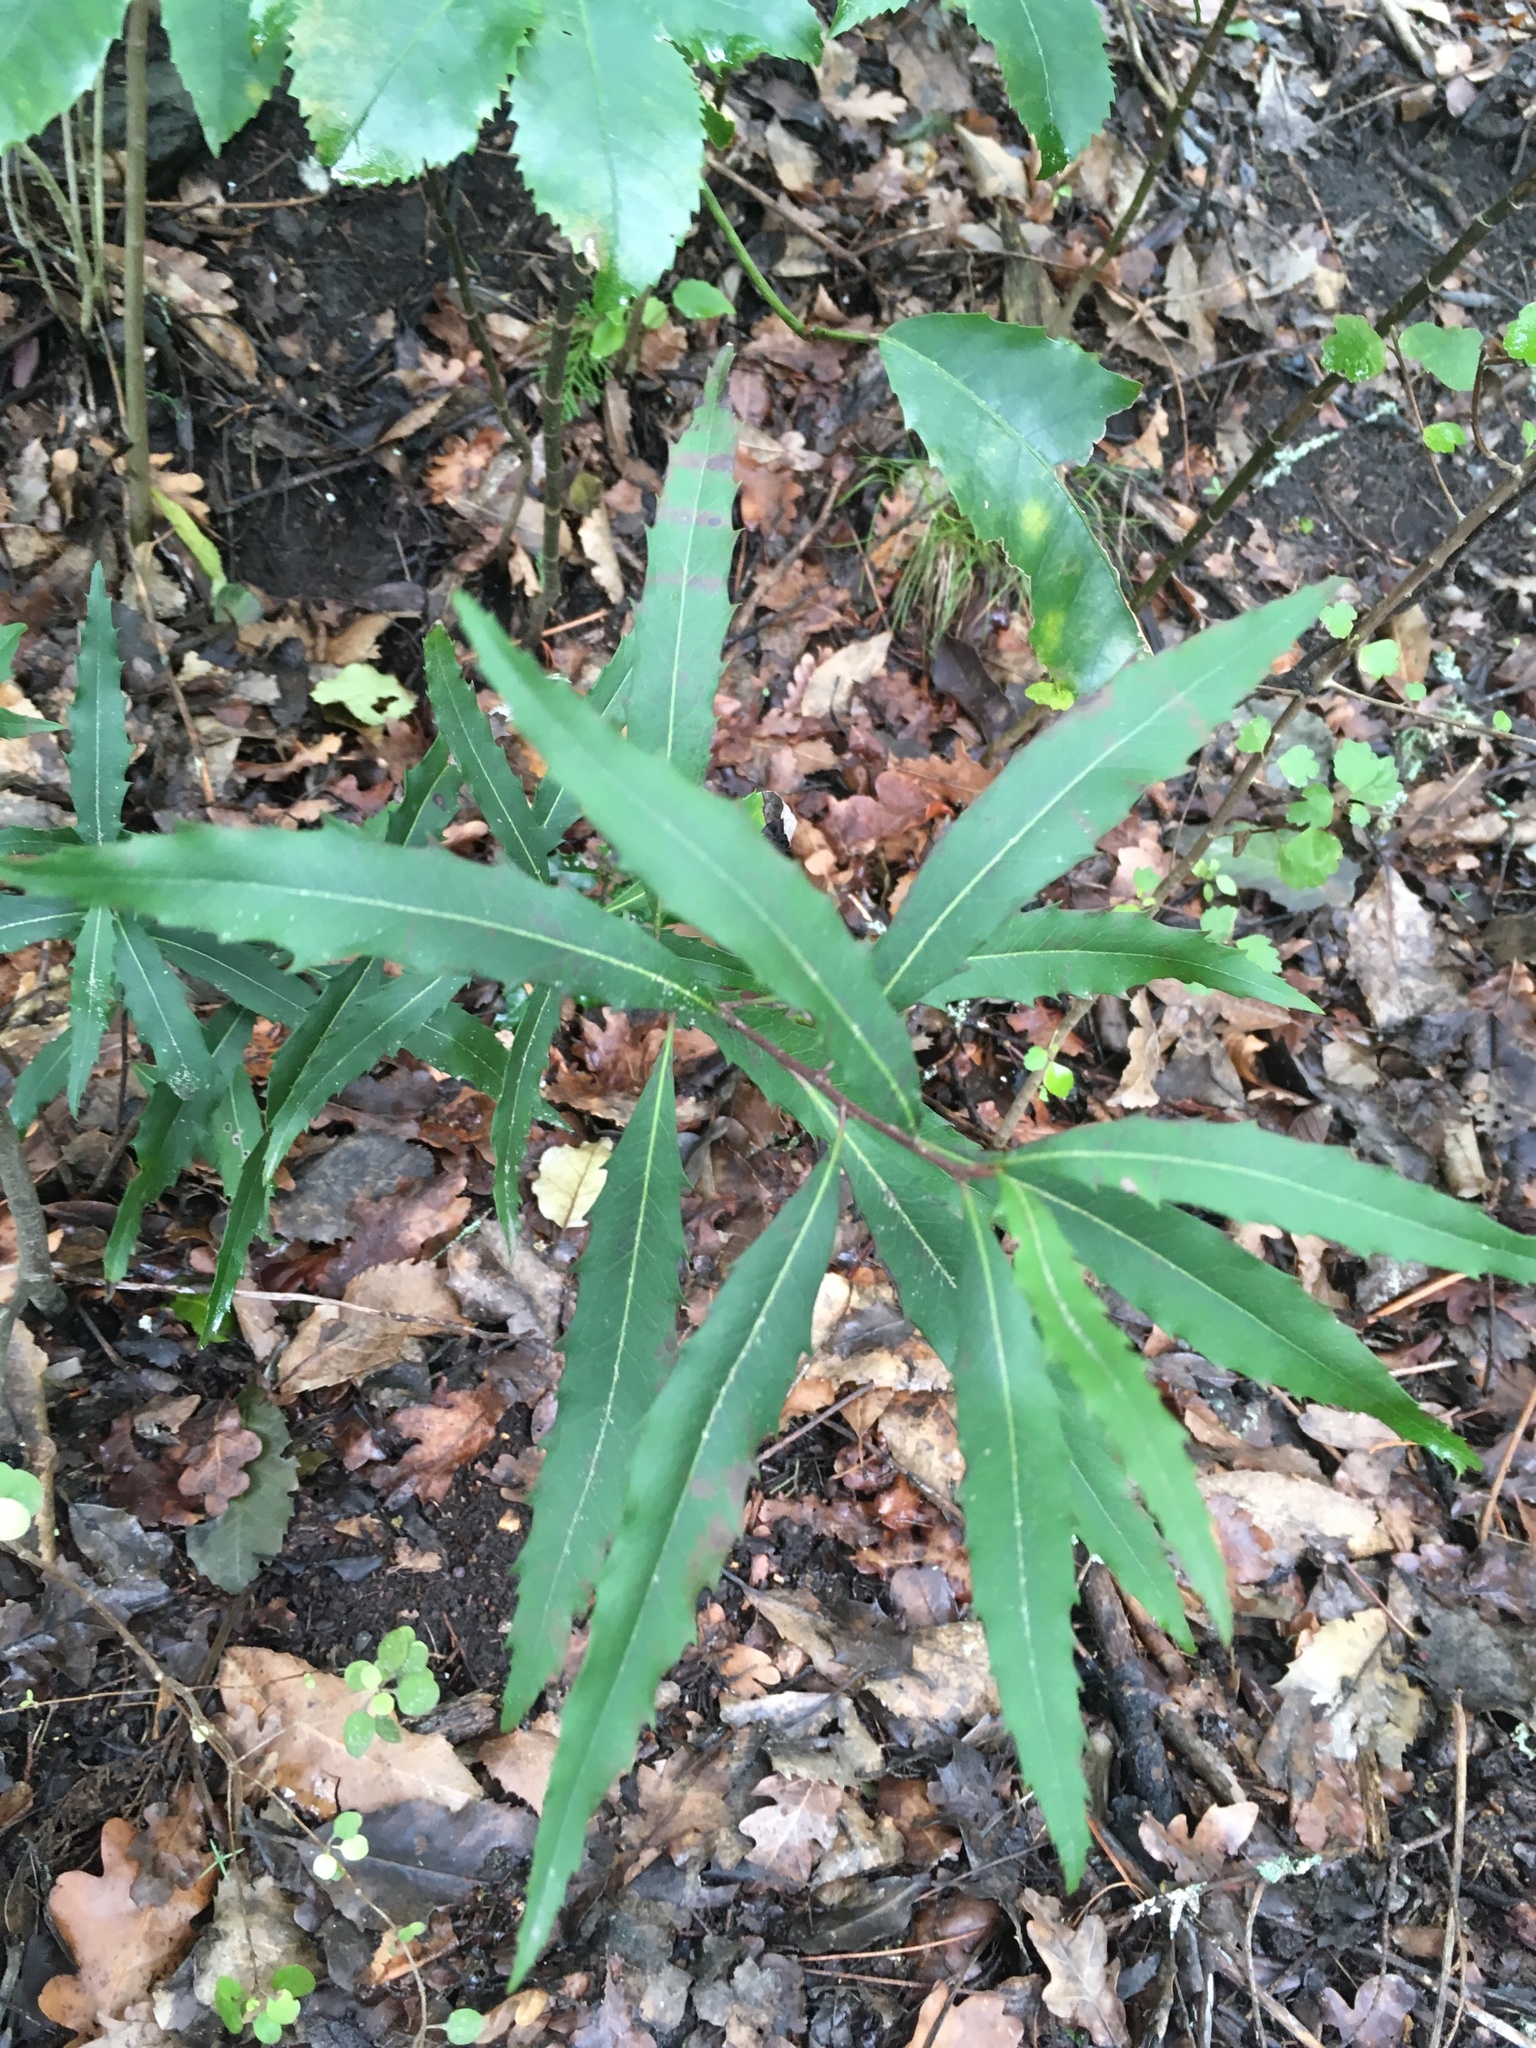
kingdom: Plantae
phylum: Tracheophyta
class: Magnoliopsida
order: Proteales
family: Proteaceae
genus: Lomatia
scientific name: Lomatia fraseri
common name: Forest lomatia
